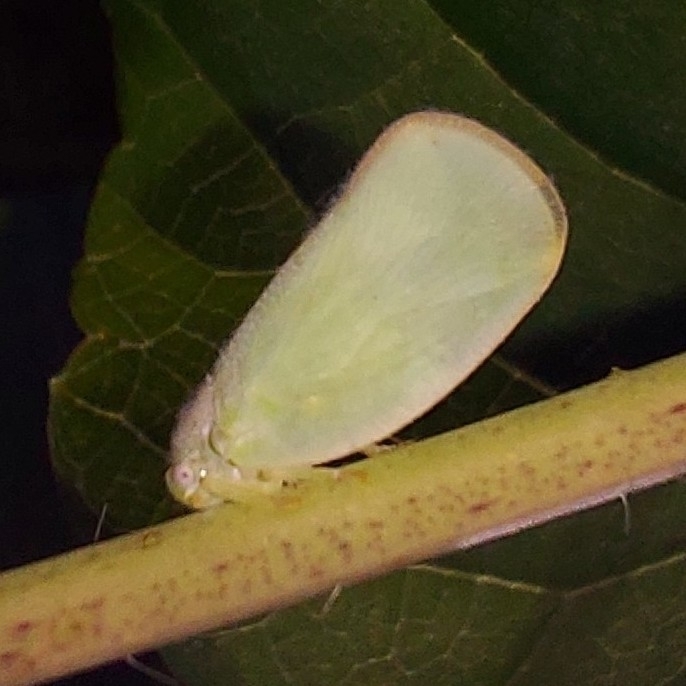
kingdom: Animalia
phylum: Arthropoda
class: Insecta
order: Hemiptera
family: Flatidae
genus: Ormenoides
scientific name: Ormenoides venusta
